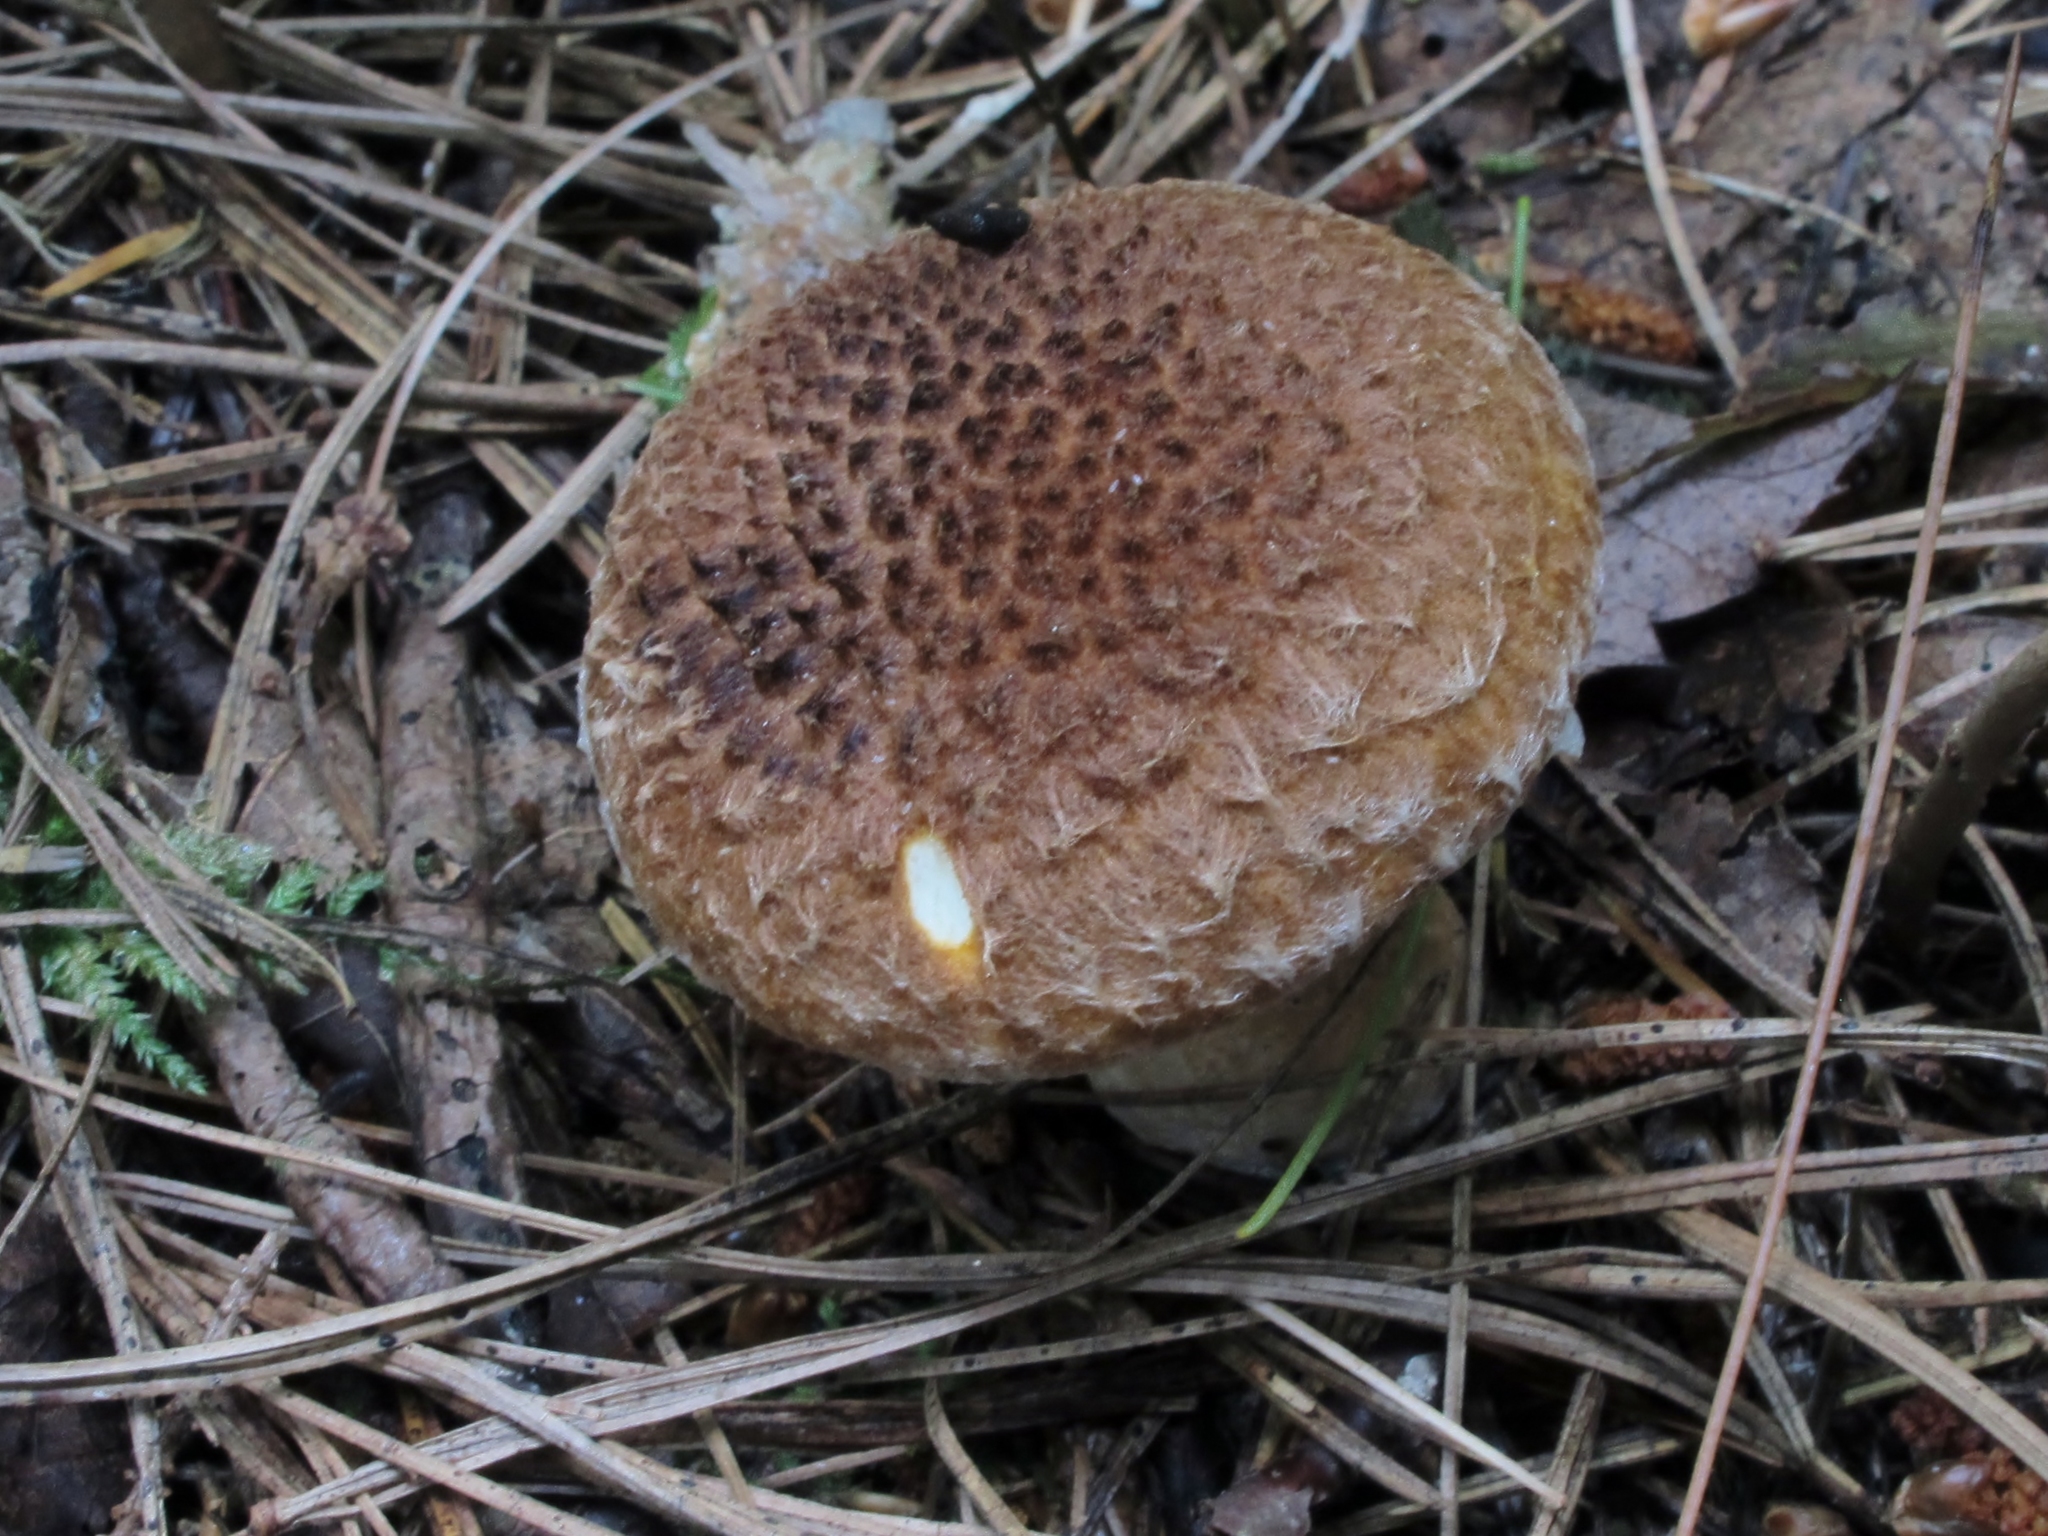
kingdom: Fungi
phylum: Basidiomycota
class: Agaricomycetes
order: Boletales
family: Suillaceae
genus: Boletinus
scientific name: Boletinus ampliporus
